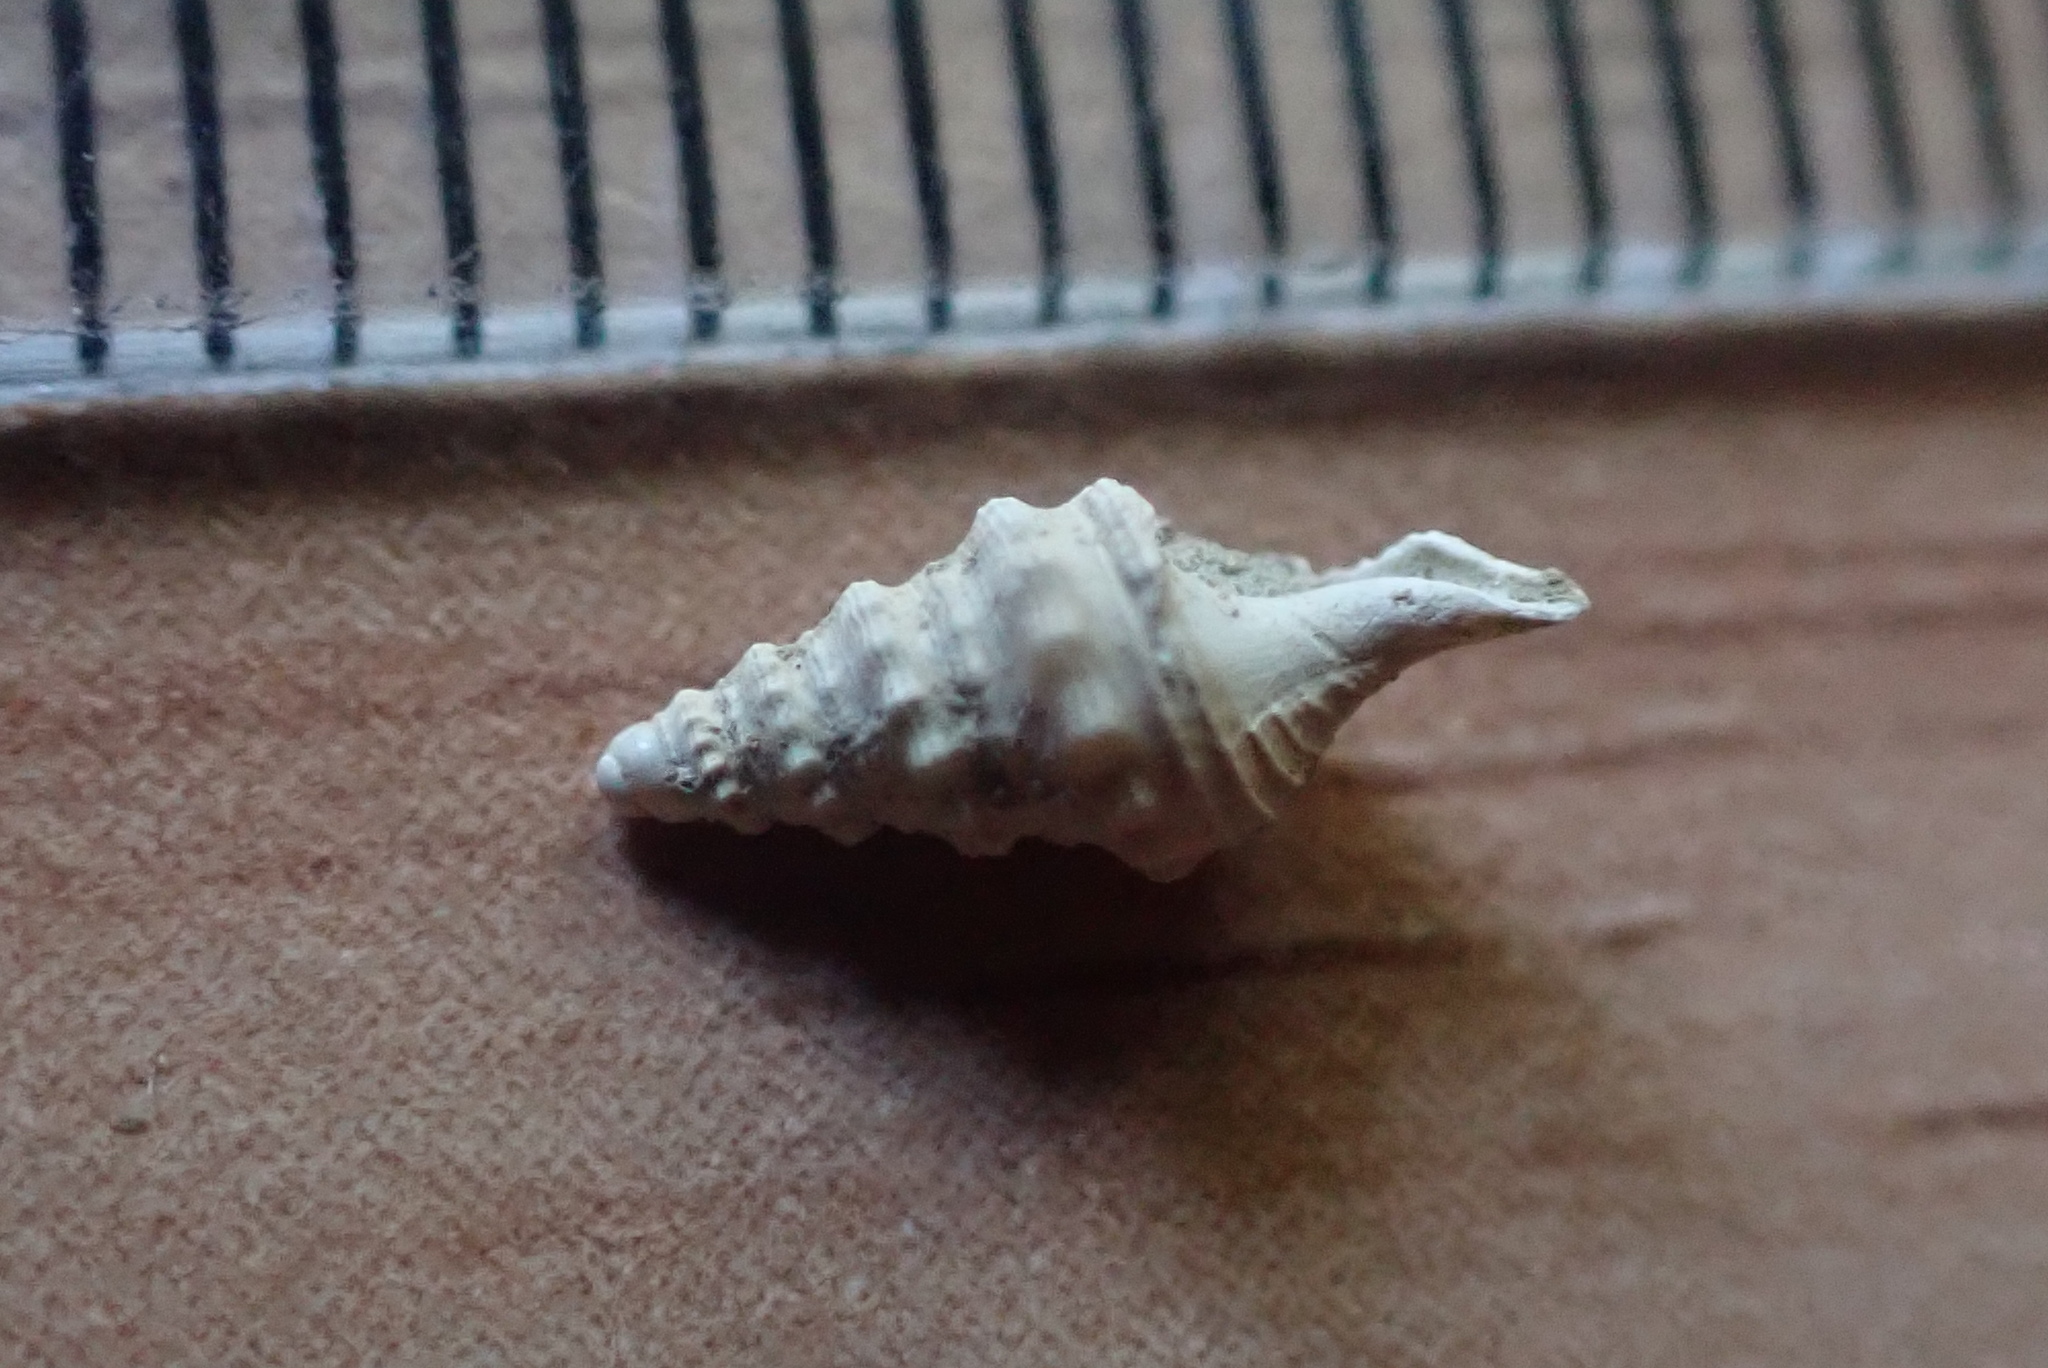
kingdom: Animalia
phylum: Mollusca
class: Gastropoda
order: Neogastropoda
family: Horaiclavidae
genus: Austrodrillia
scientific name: Austrodrillia rawitensis
